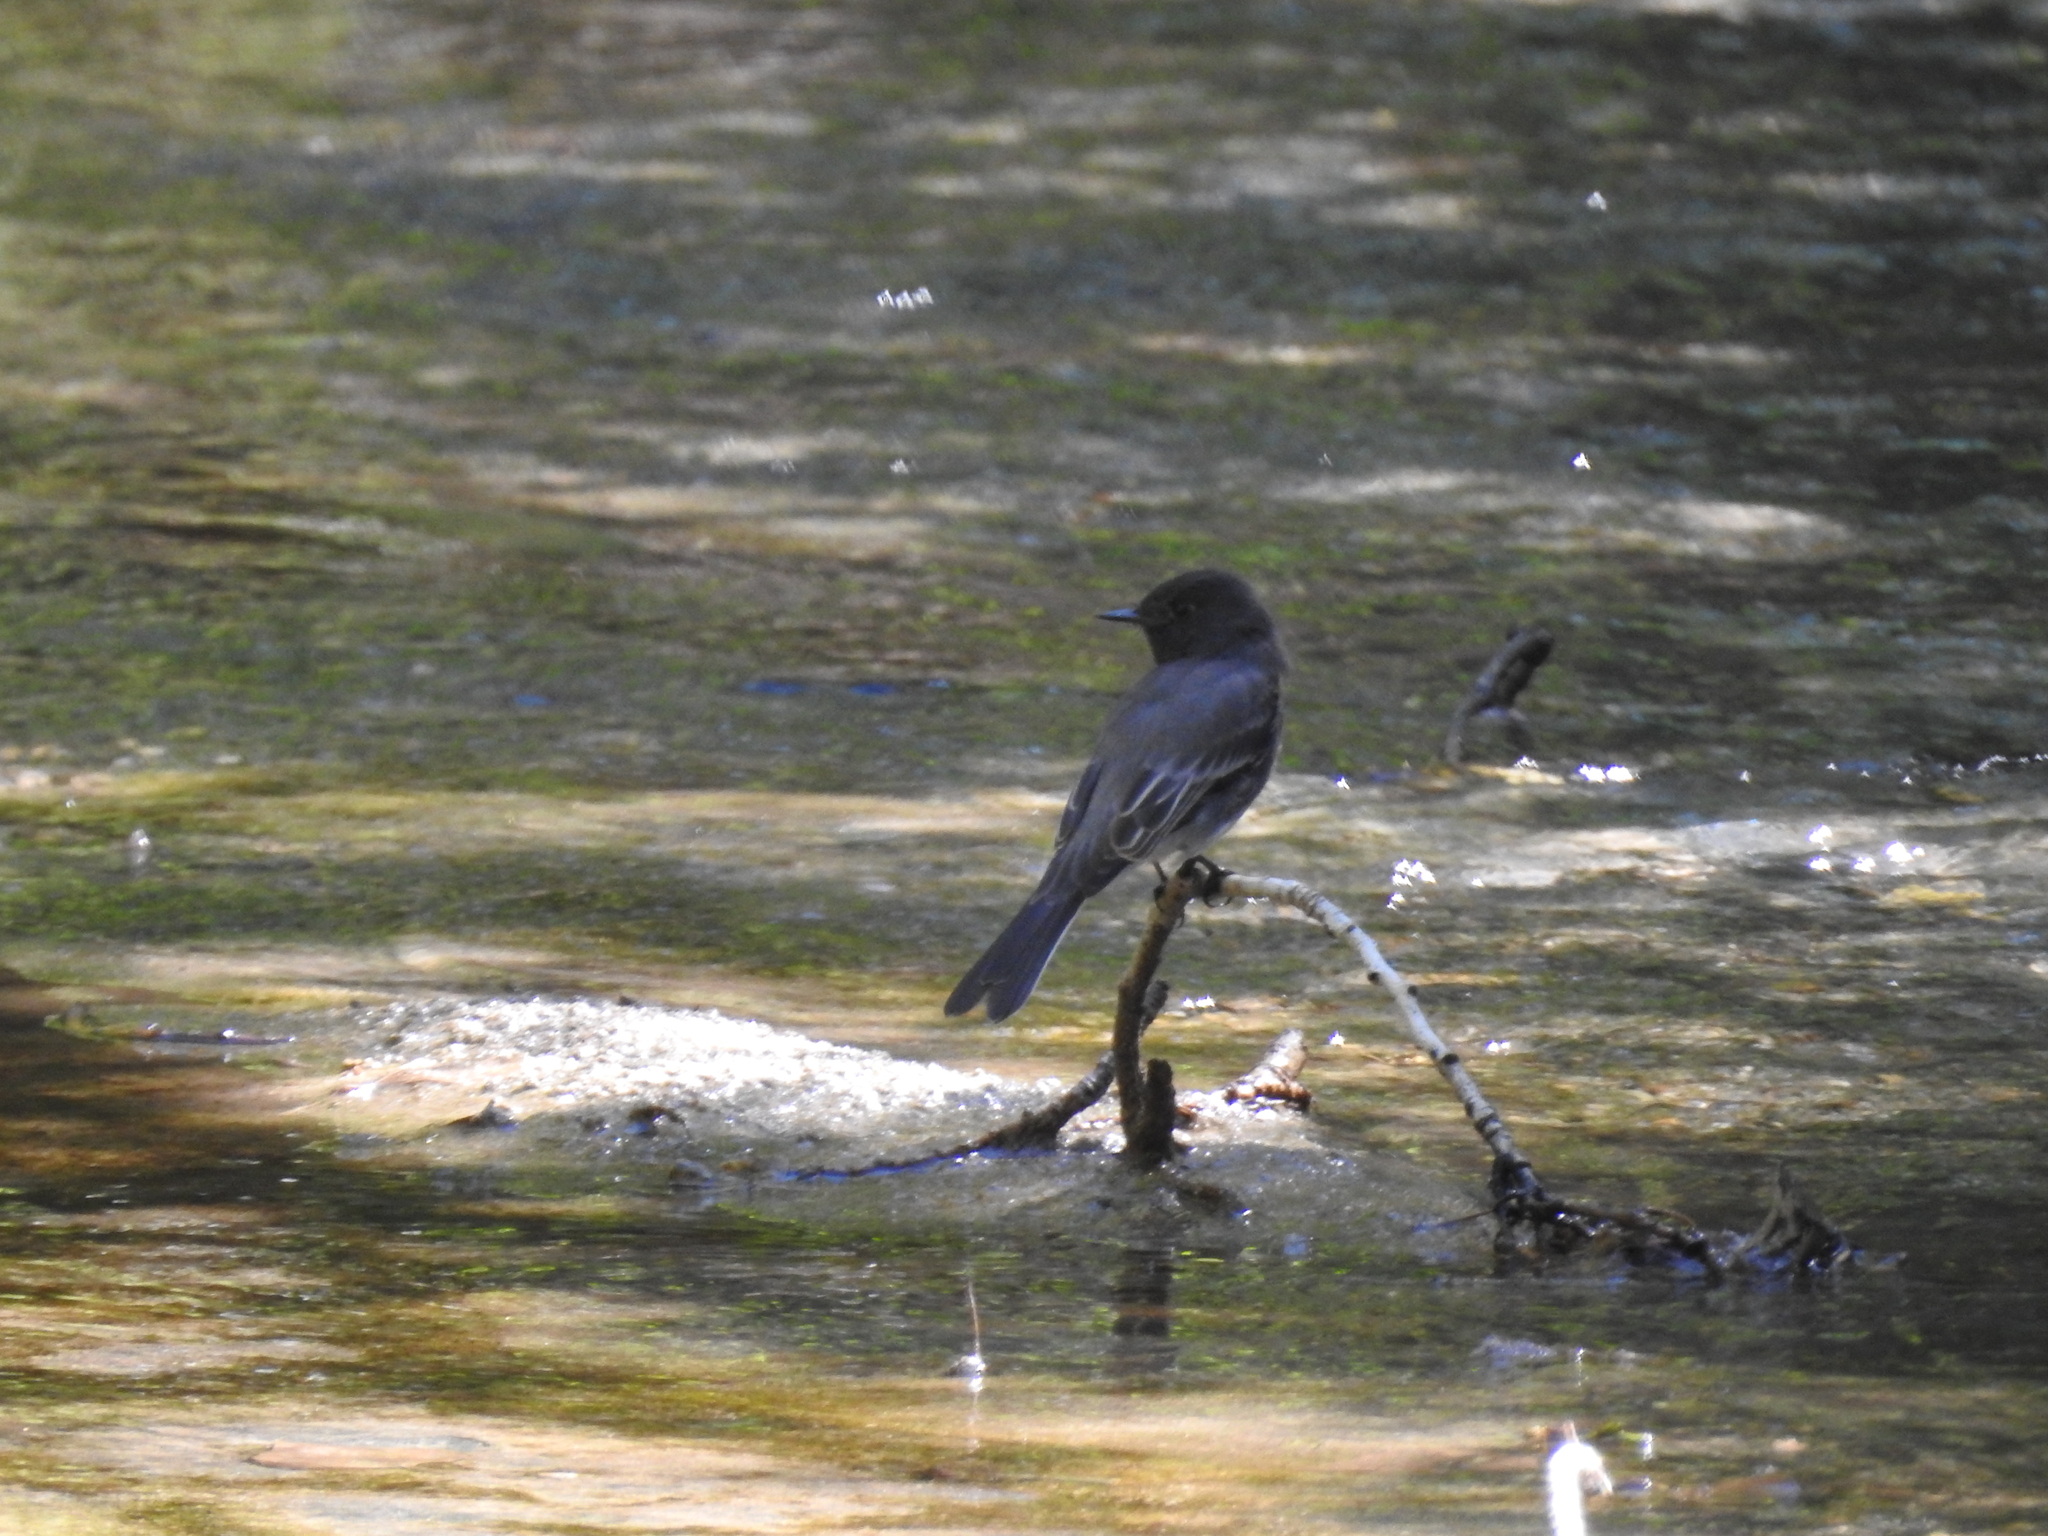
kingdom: Animalia
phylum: Chordata
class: Aves
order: Passeriformes
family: Tyrannidae
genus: Sayornis
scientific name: Sayornis nigricans
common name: Black phoebe
